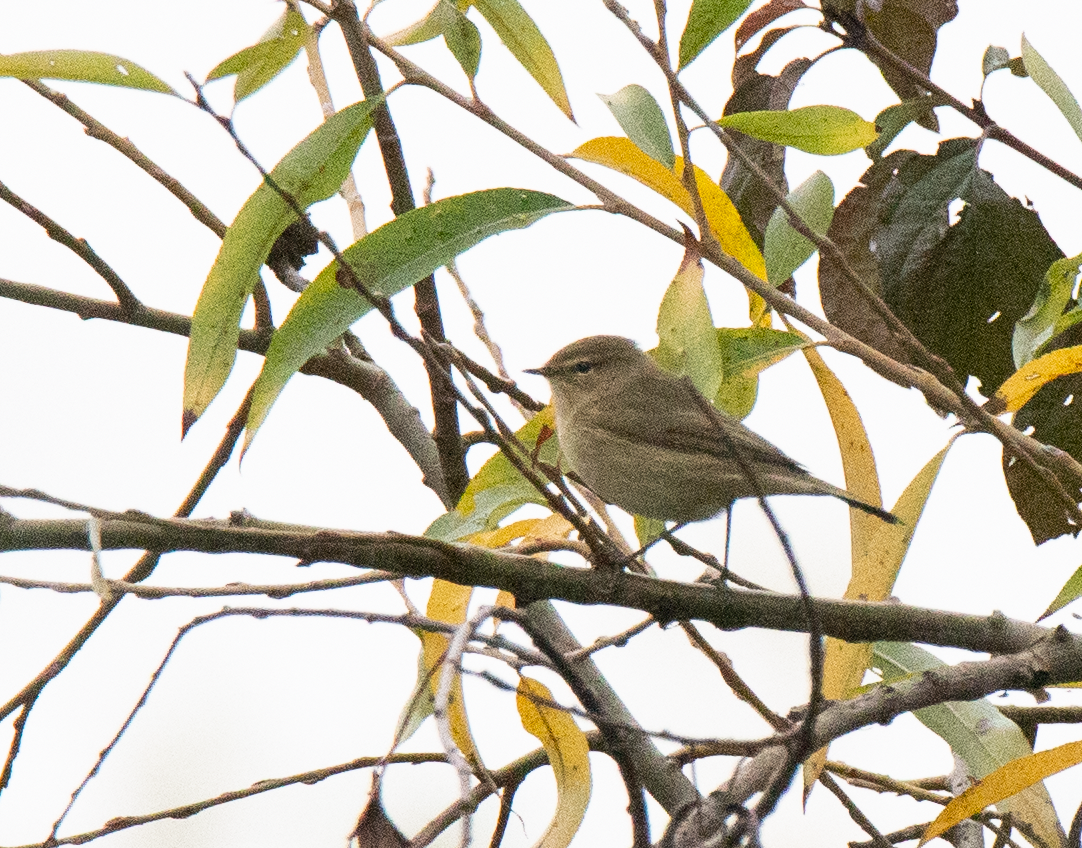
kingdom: Animalia
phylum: Chordata
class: Aves
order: Passeriformes
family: Phylloscopidae
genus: Phylloscopus
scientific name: Phylloscopus collybita
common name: Common chiffchaff
